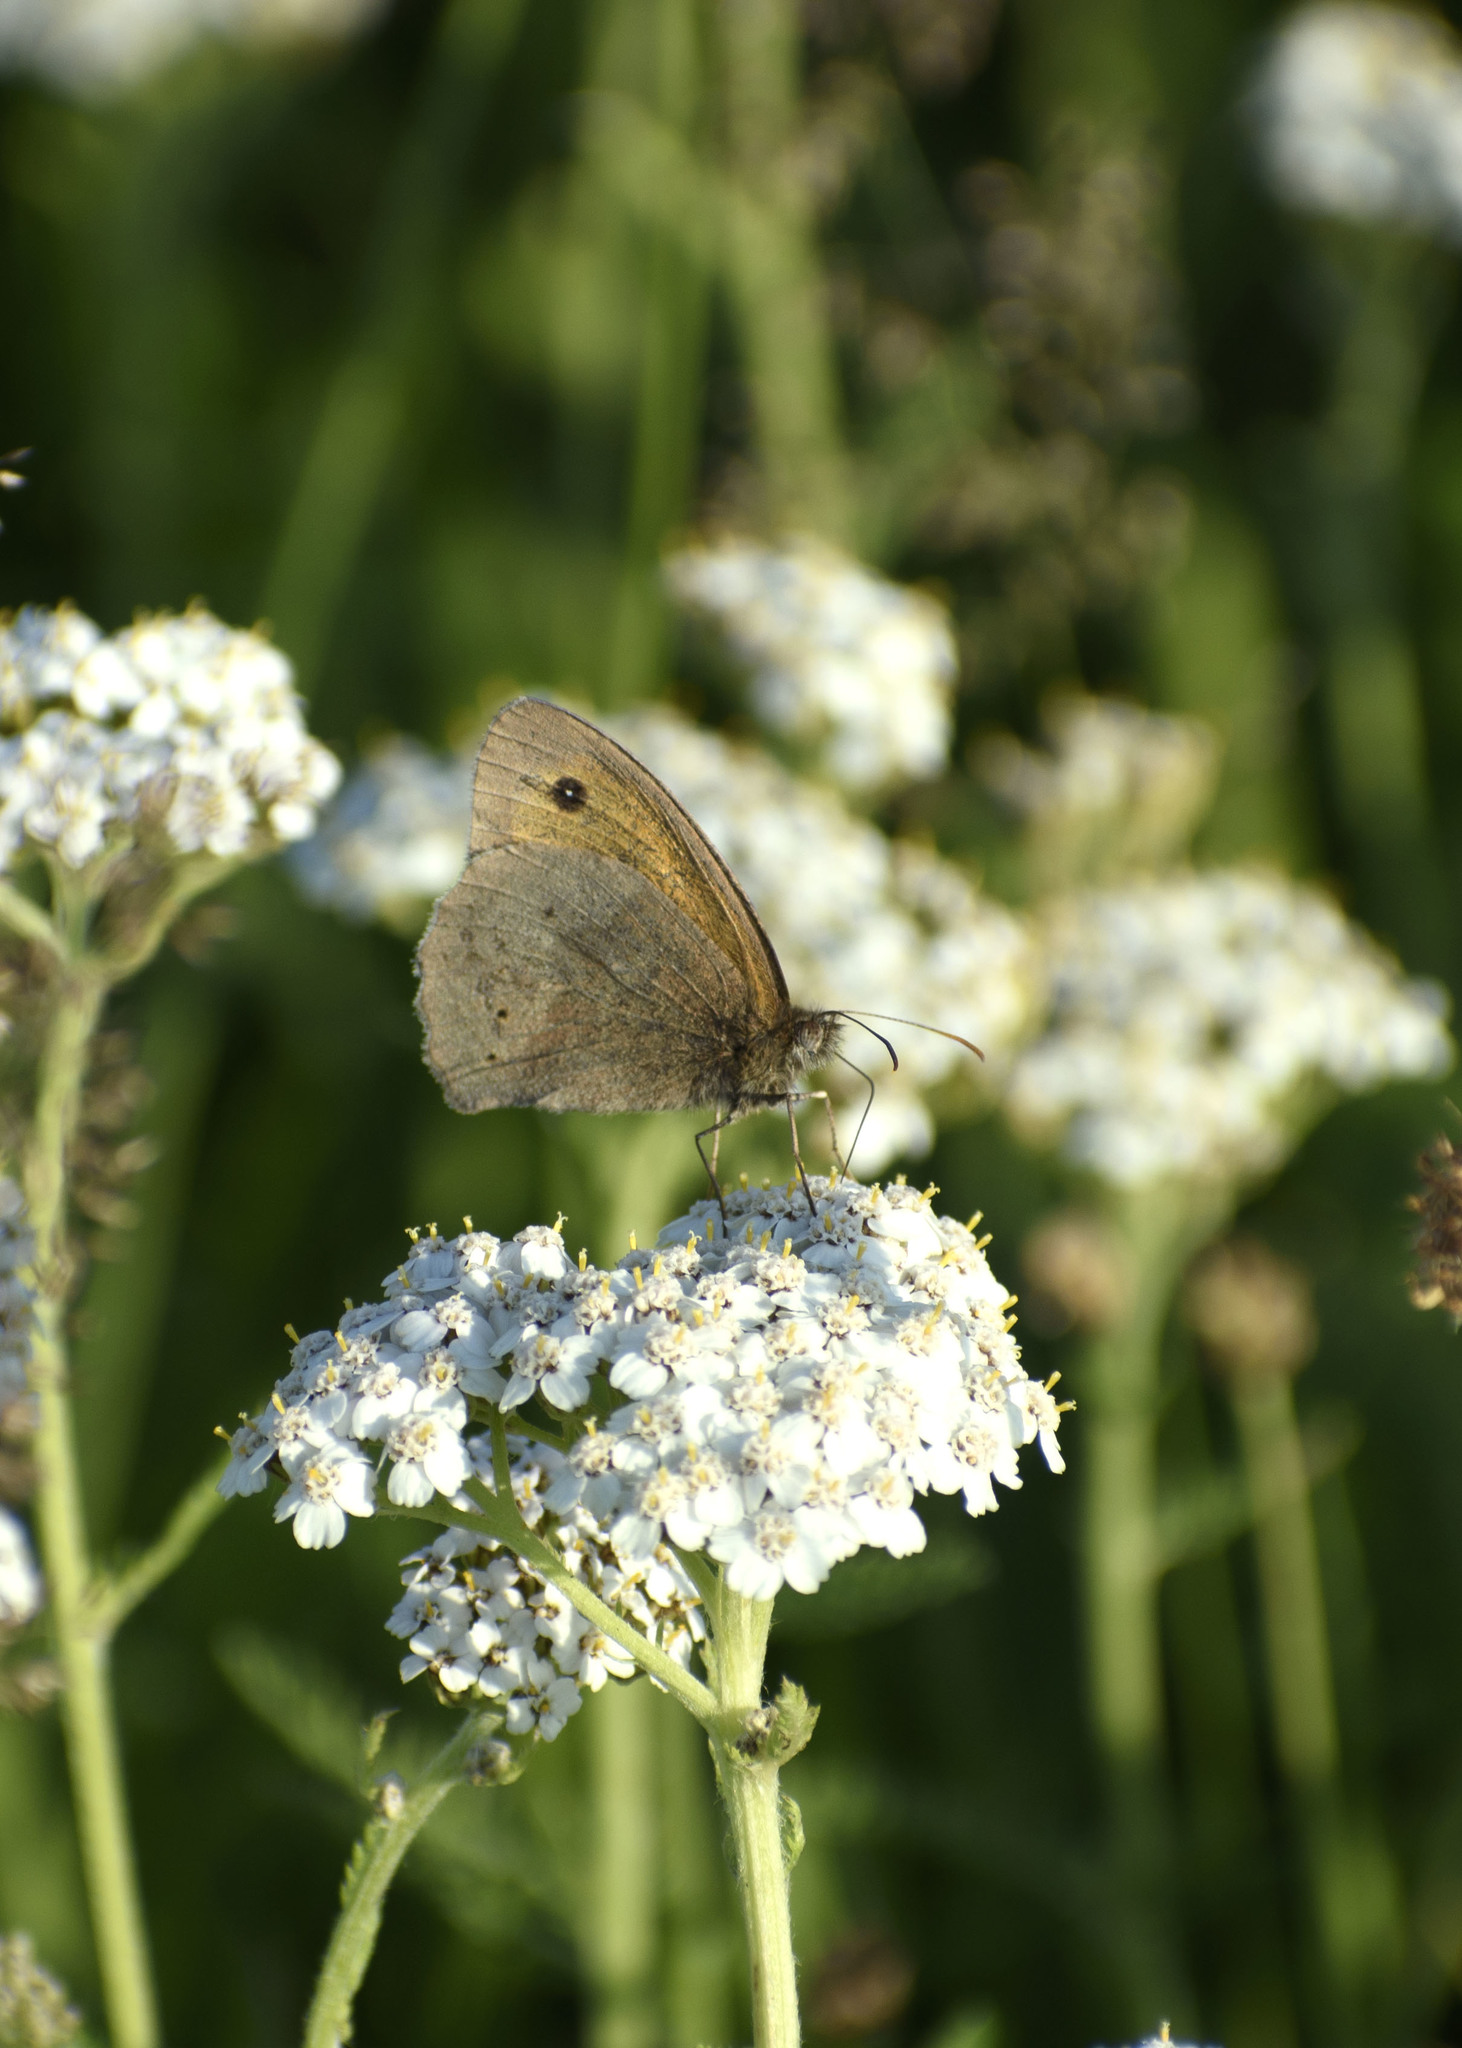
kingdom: Animalia
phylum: Arthropoda
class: Insecta
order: Lepidoptera
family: Nymphalidae
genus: Maniola
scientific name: Maniola jurtina
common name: Meadow brown
